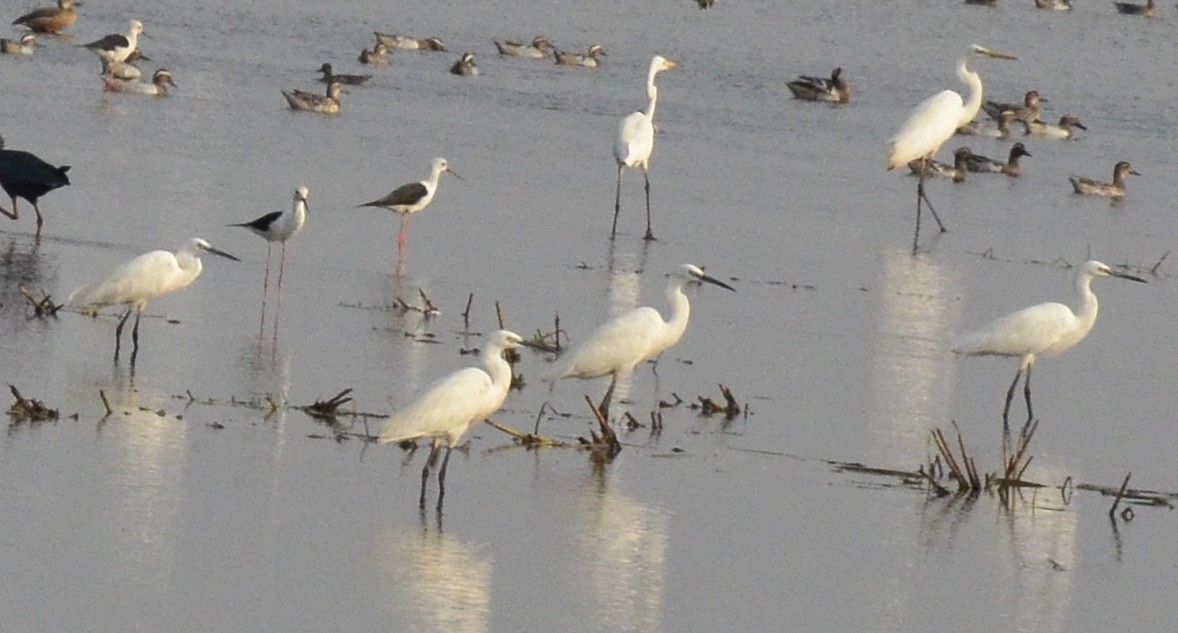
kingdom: Animalia
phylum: Chordata
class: Aves
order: Pelecaniformes
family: Ardeidae
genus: Egretta
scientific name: Egretta garzetta
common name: Little egret
